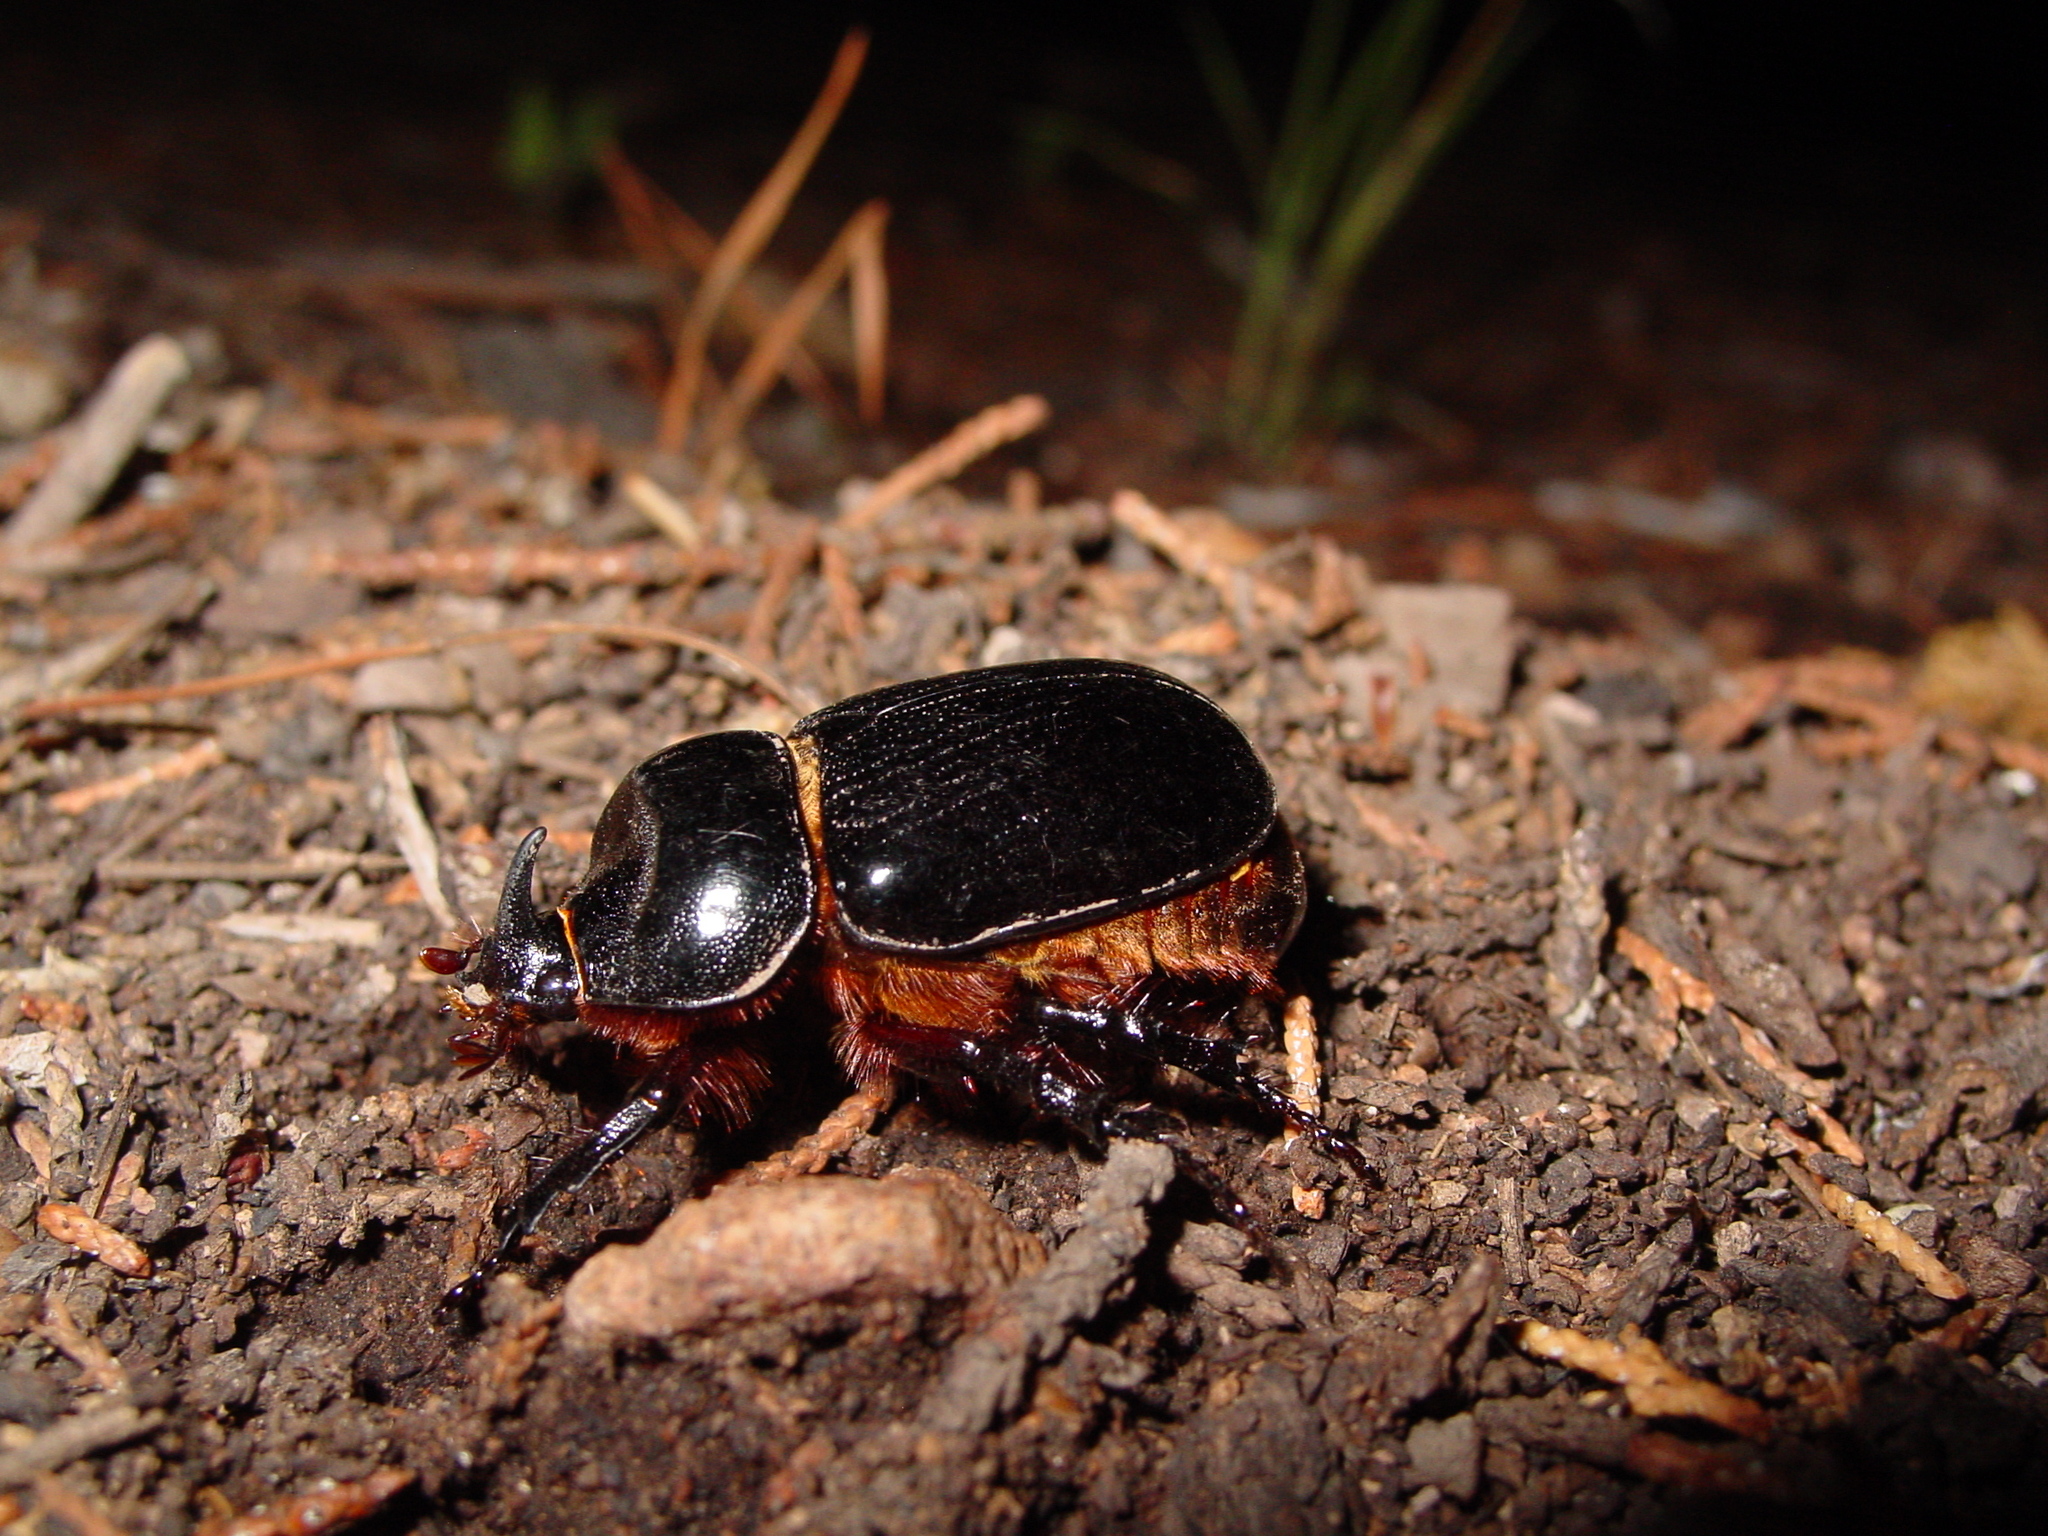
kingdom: Animalia
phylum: Arthropoda
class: Insecta
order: Coleoptera
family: Scarabaeidae
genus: Xyloryctes
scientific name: Xyloryctes thestalus
